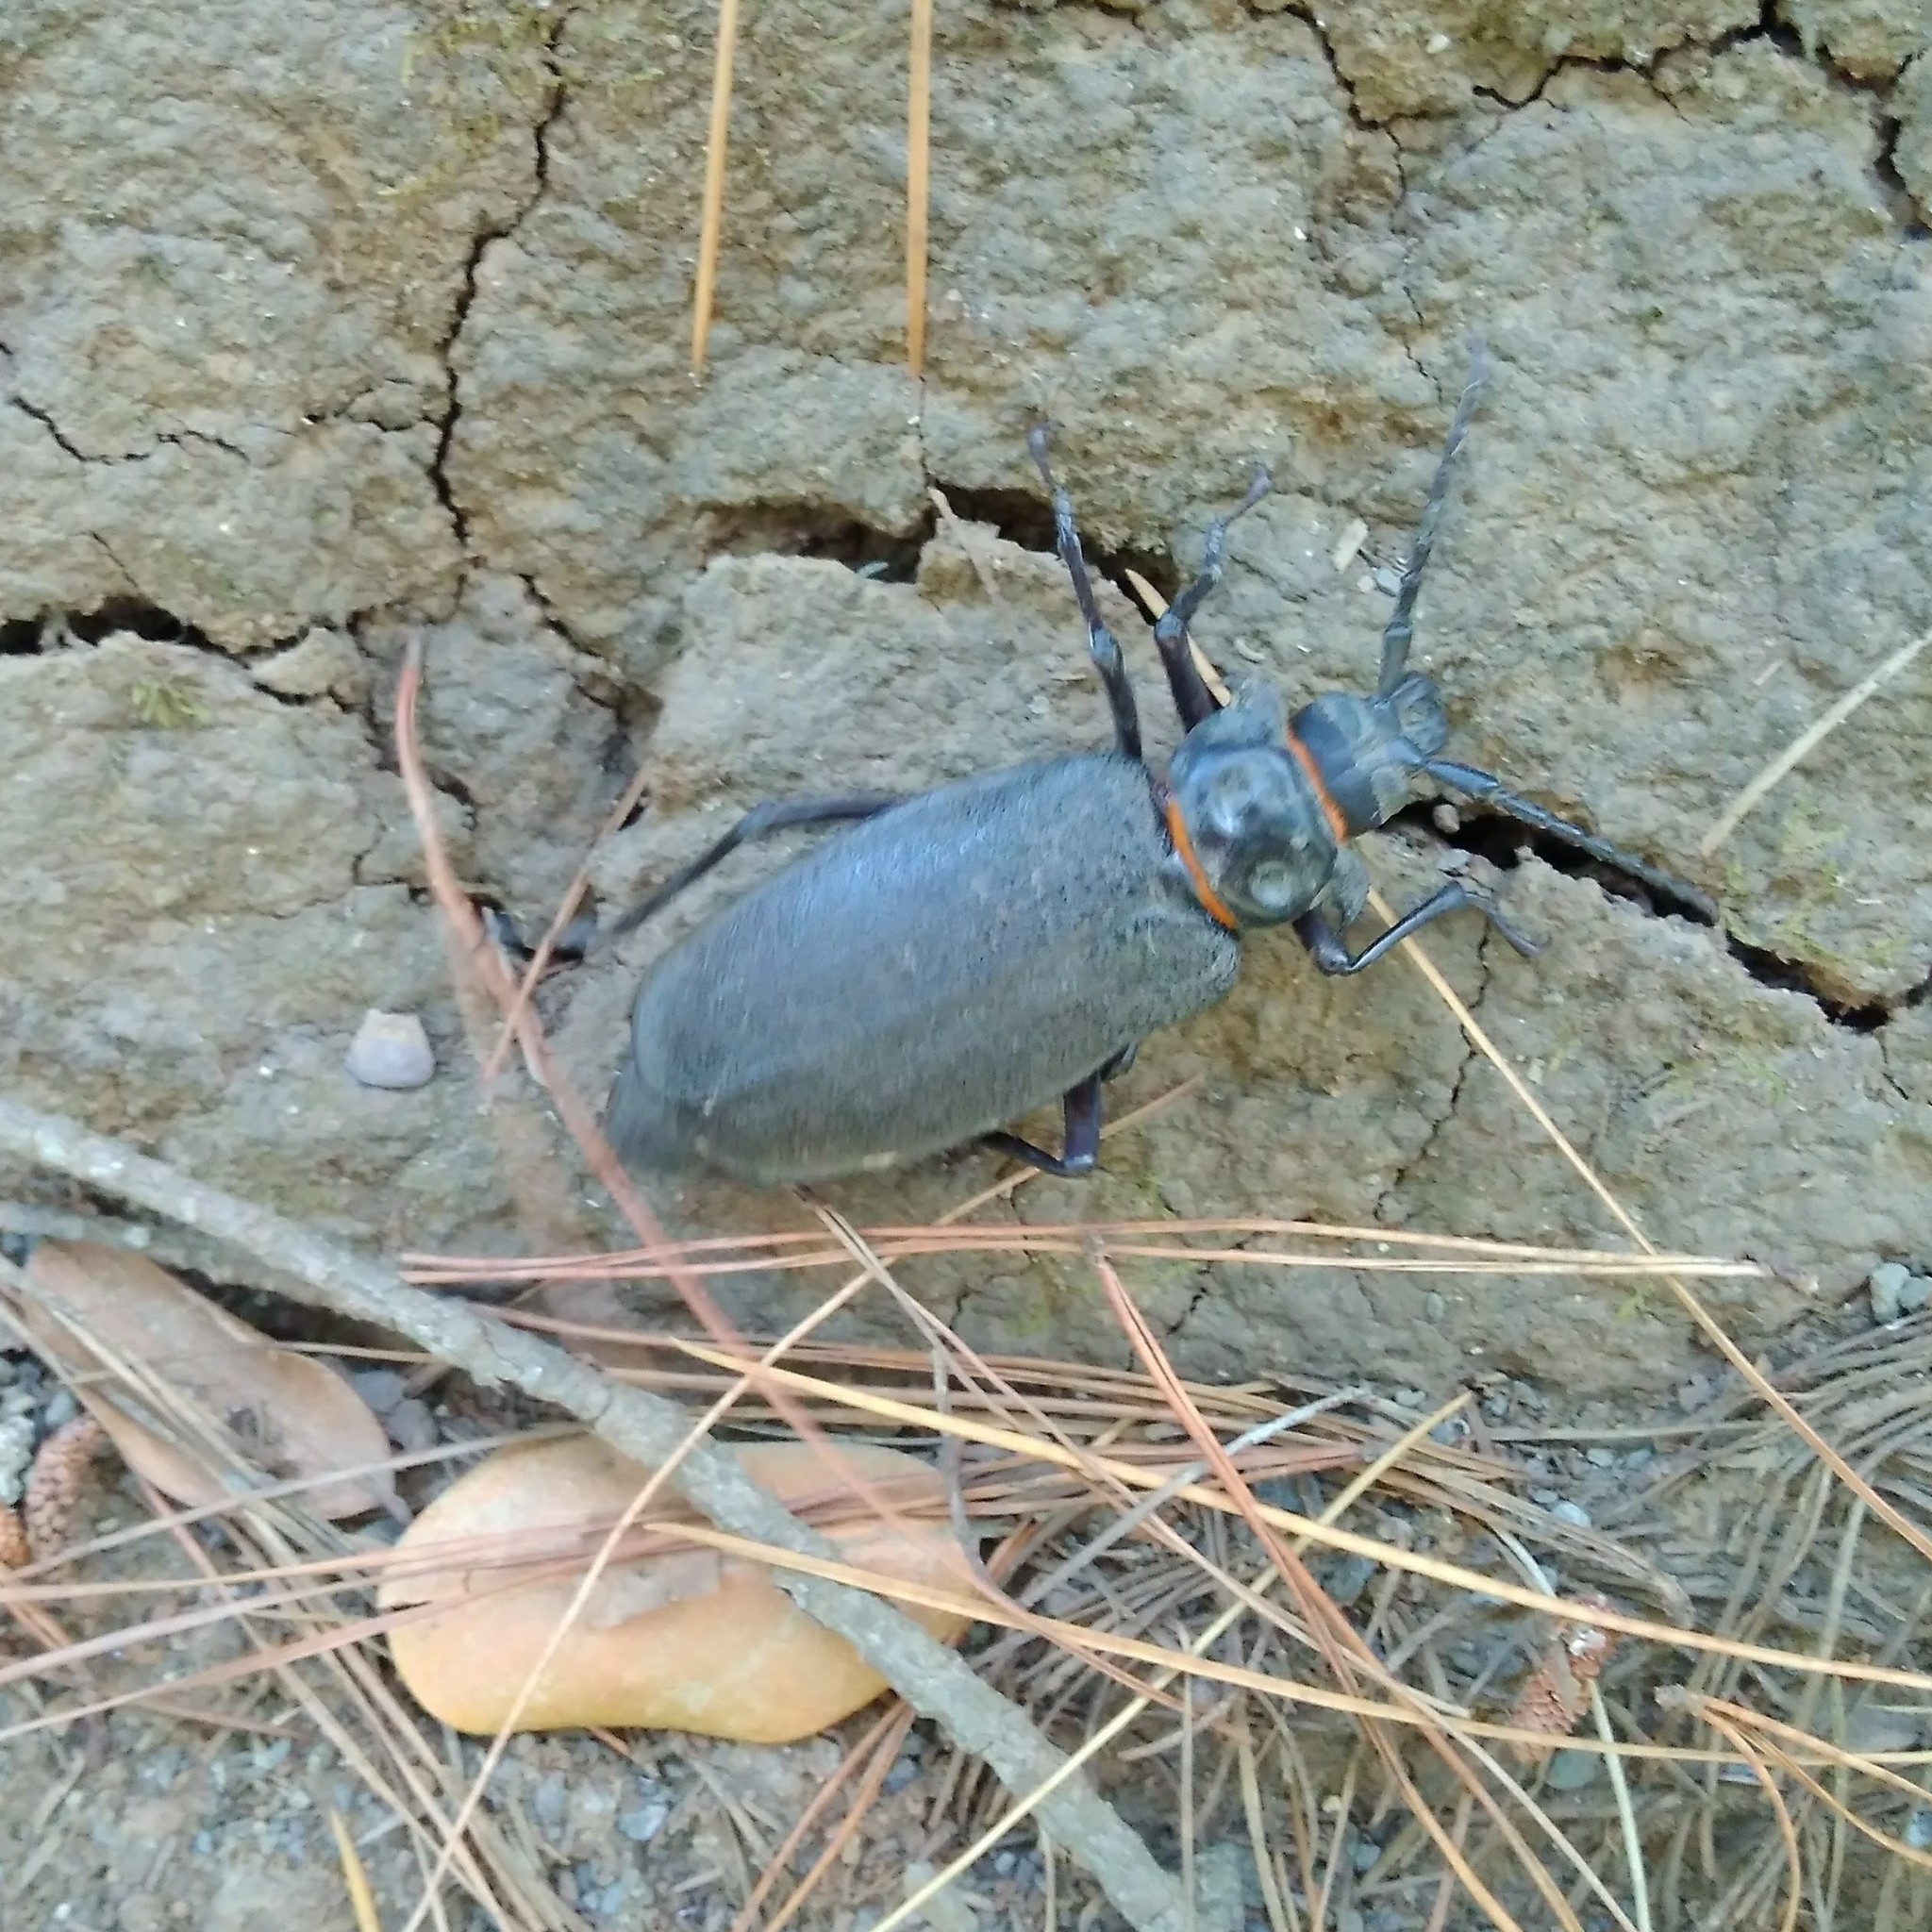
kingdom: Animalia
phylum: Arthropoda
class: Insecta
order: Coleoptera
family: Cerambycidae
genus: Acanthinodera
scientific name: Acanthinodera cumingii
